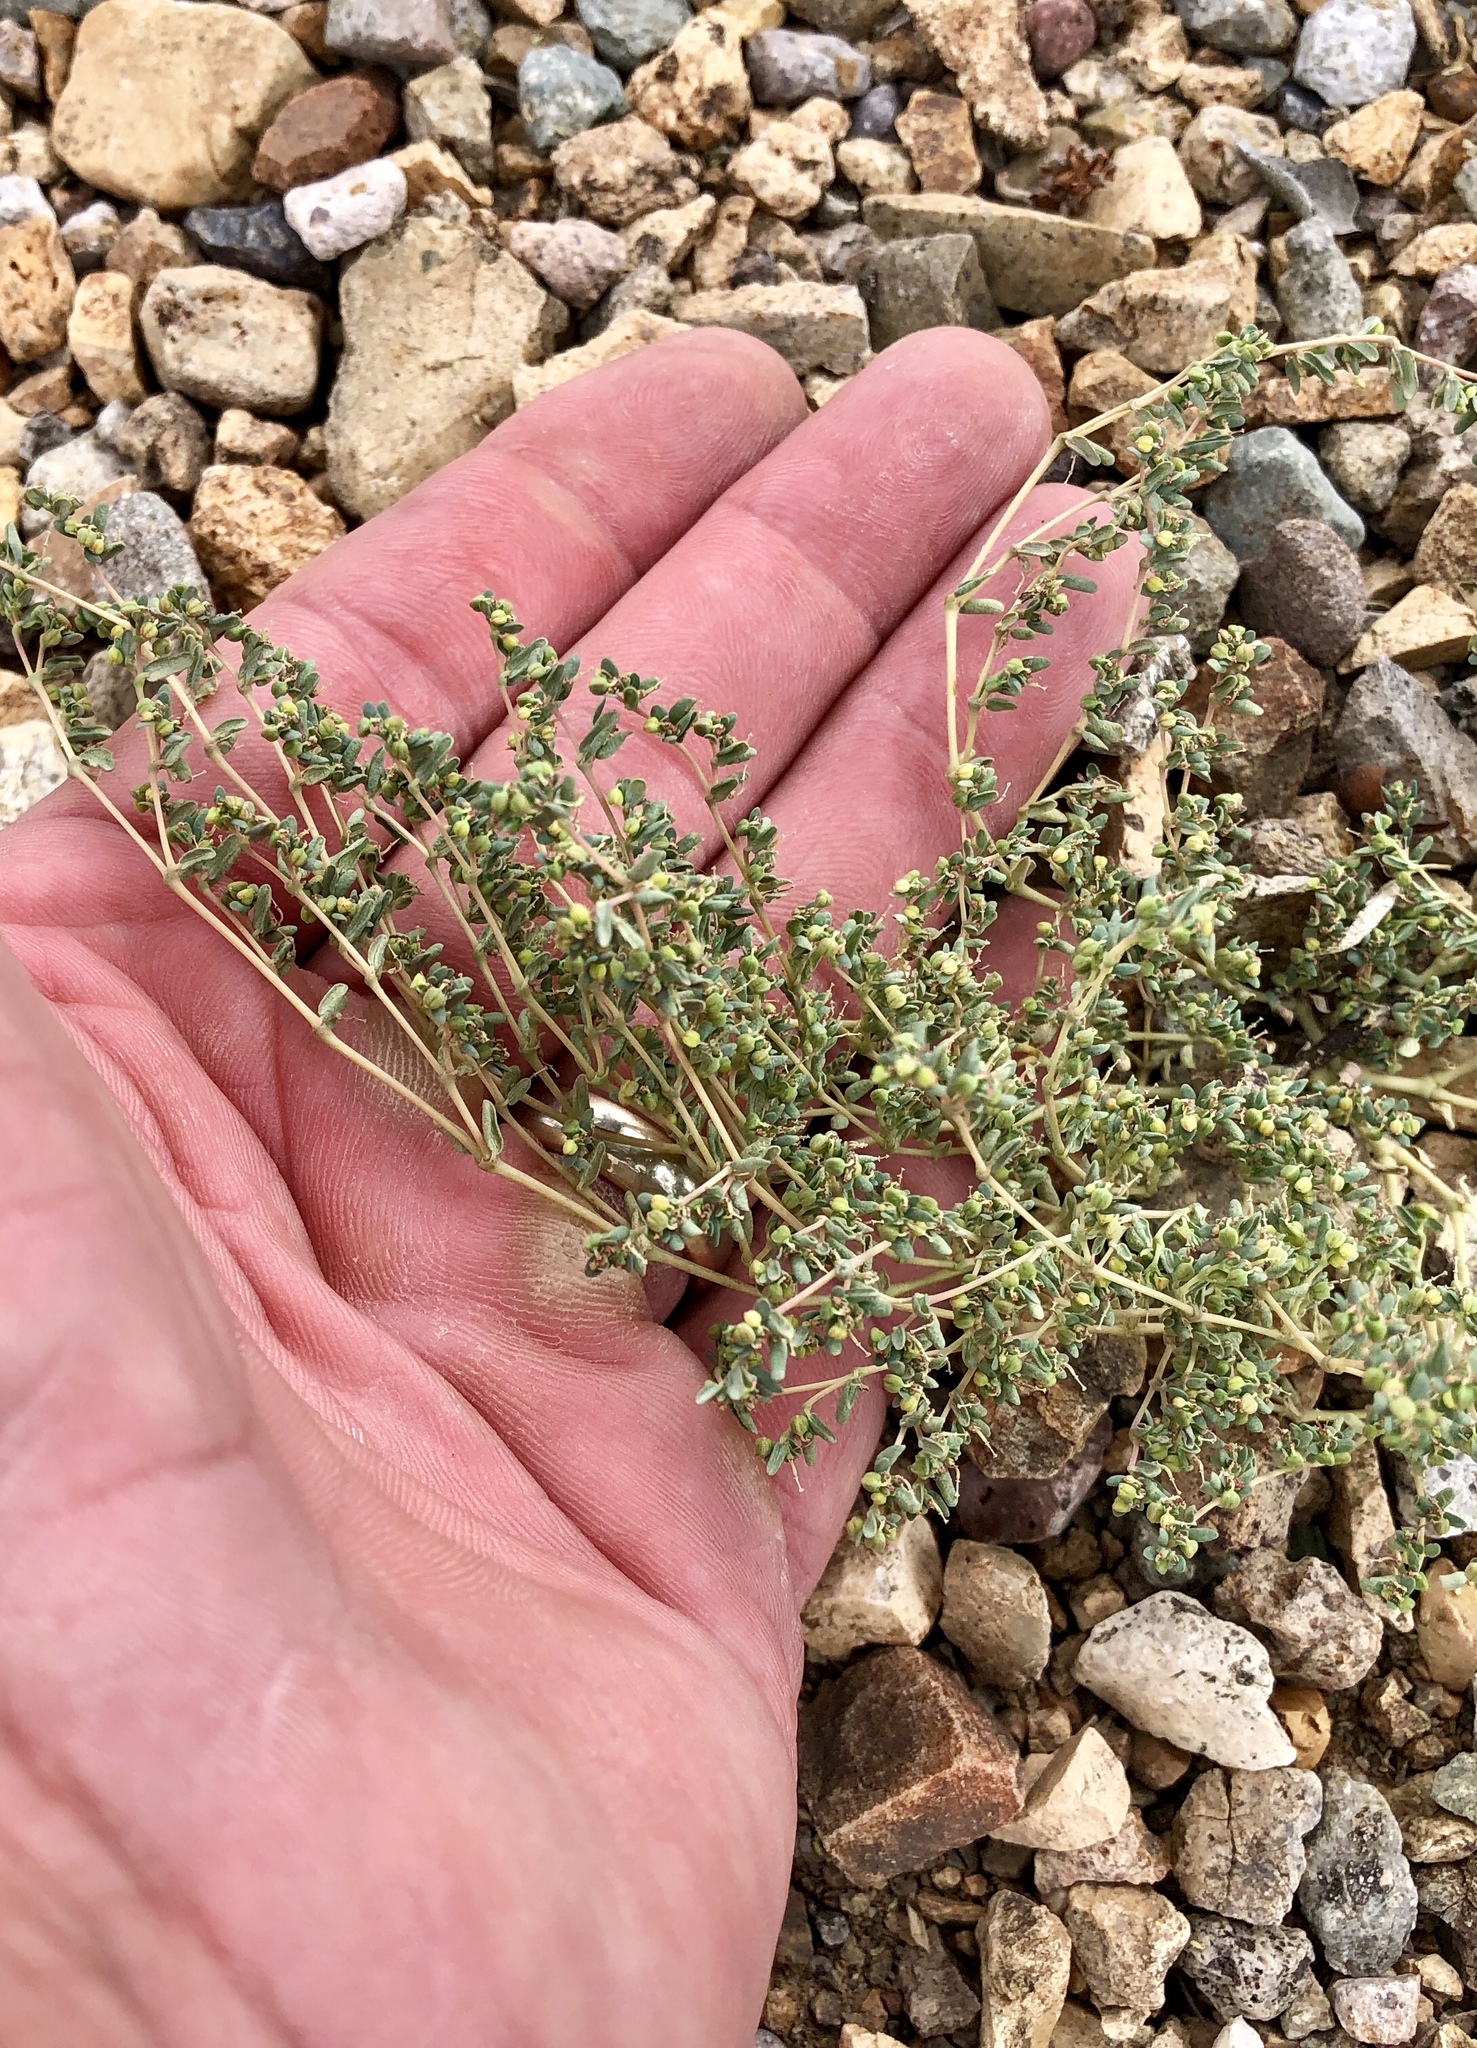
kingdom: Plantae
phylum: Tracheophyta
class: Magnoliopsida
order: Malpighiales
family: Euphorbiaceae
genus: Euphorbia
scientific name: Euphorbia micromera
